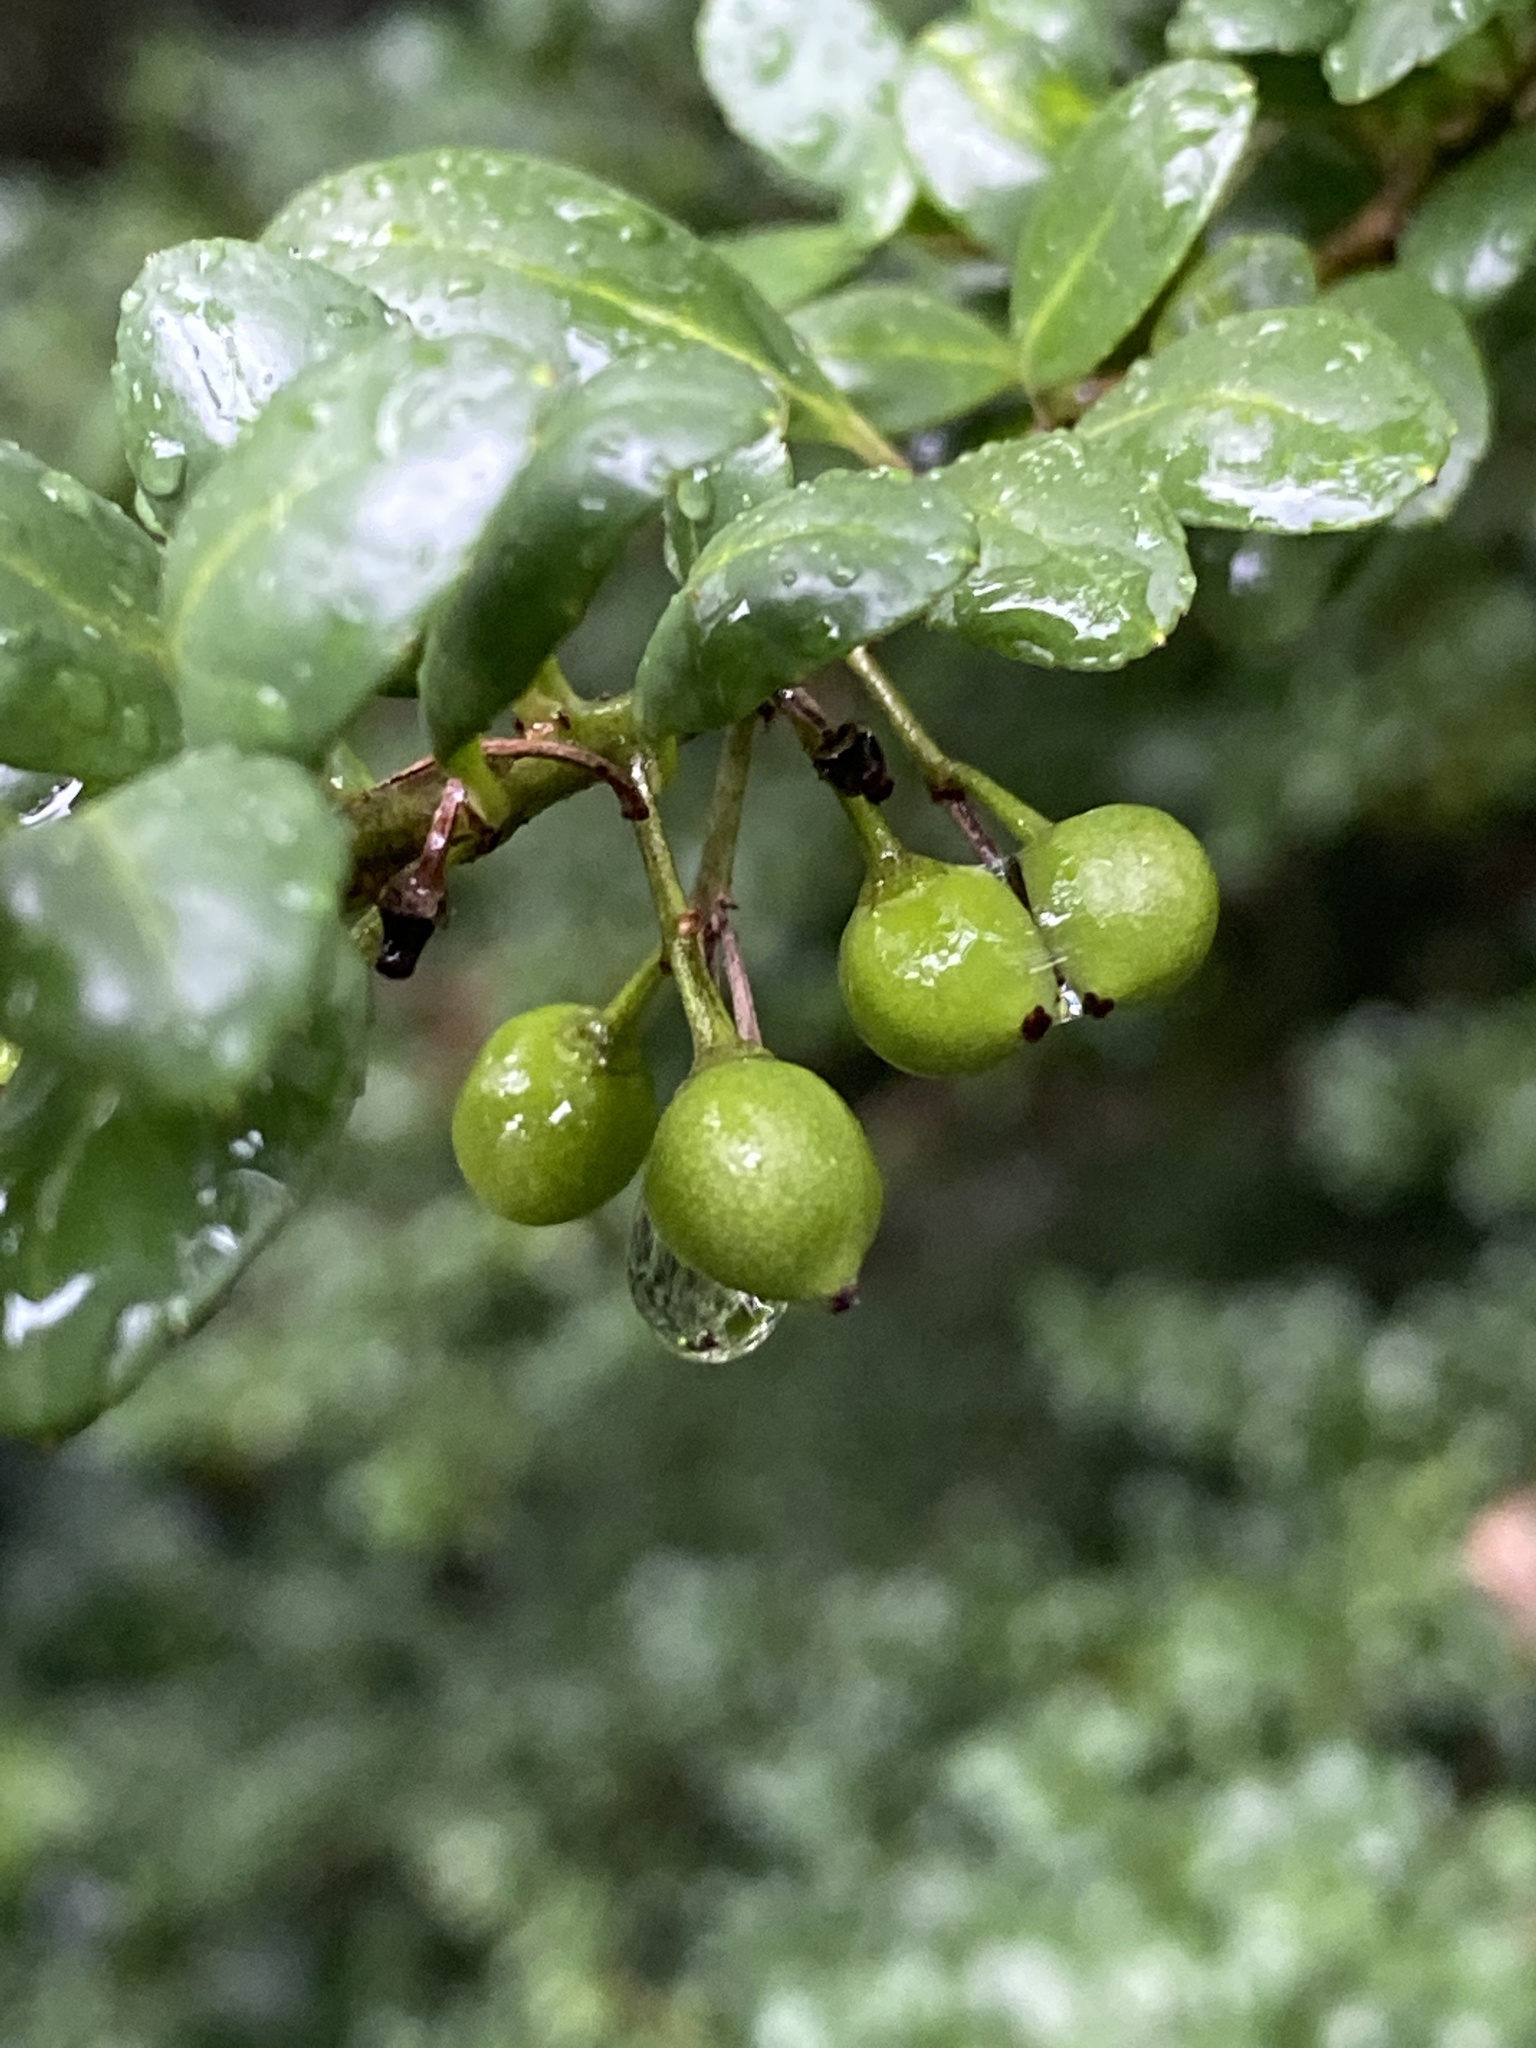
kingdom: Plantae
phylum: Tracheophyta
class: Magnoliopsida
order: Aquifoliales
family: Aquifoliaceae
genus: Ilex
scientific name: Ilex crenata
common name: Japanese holly
